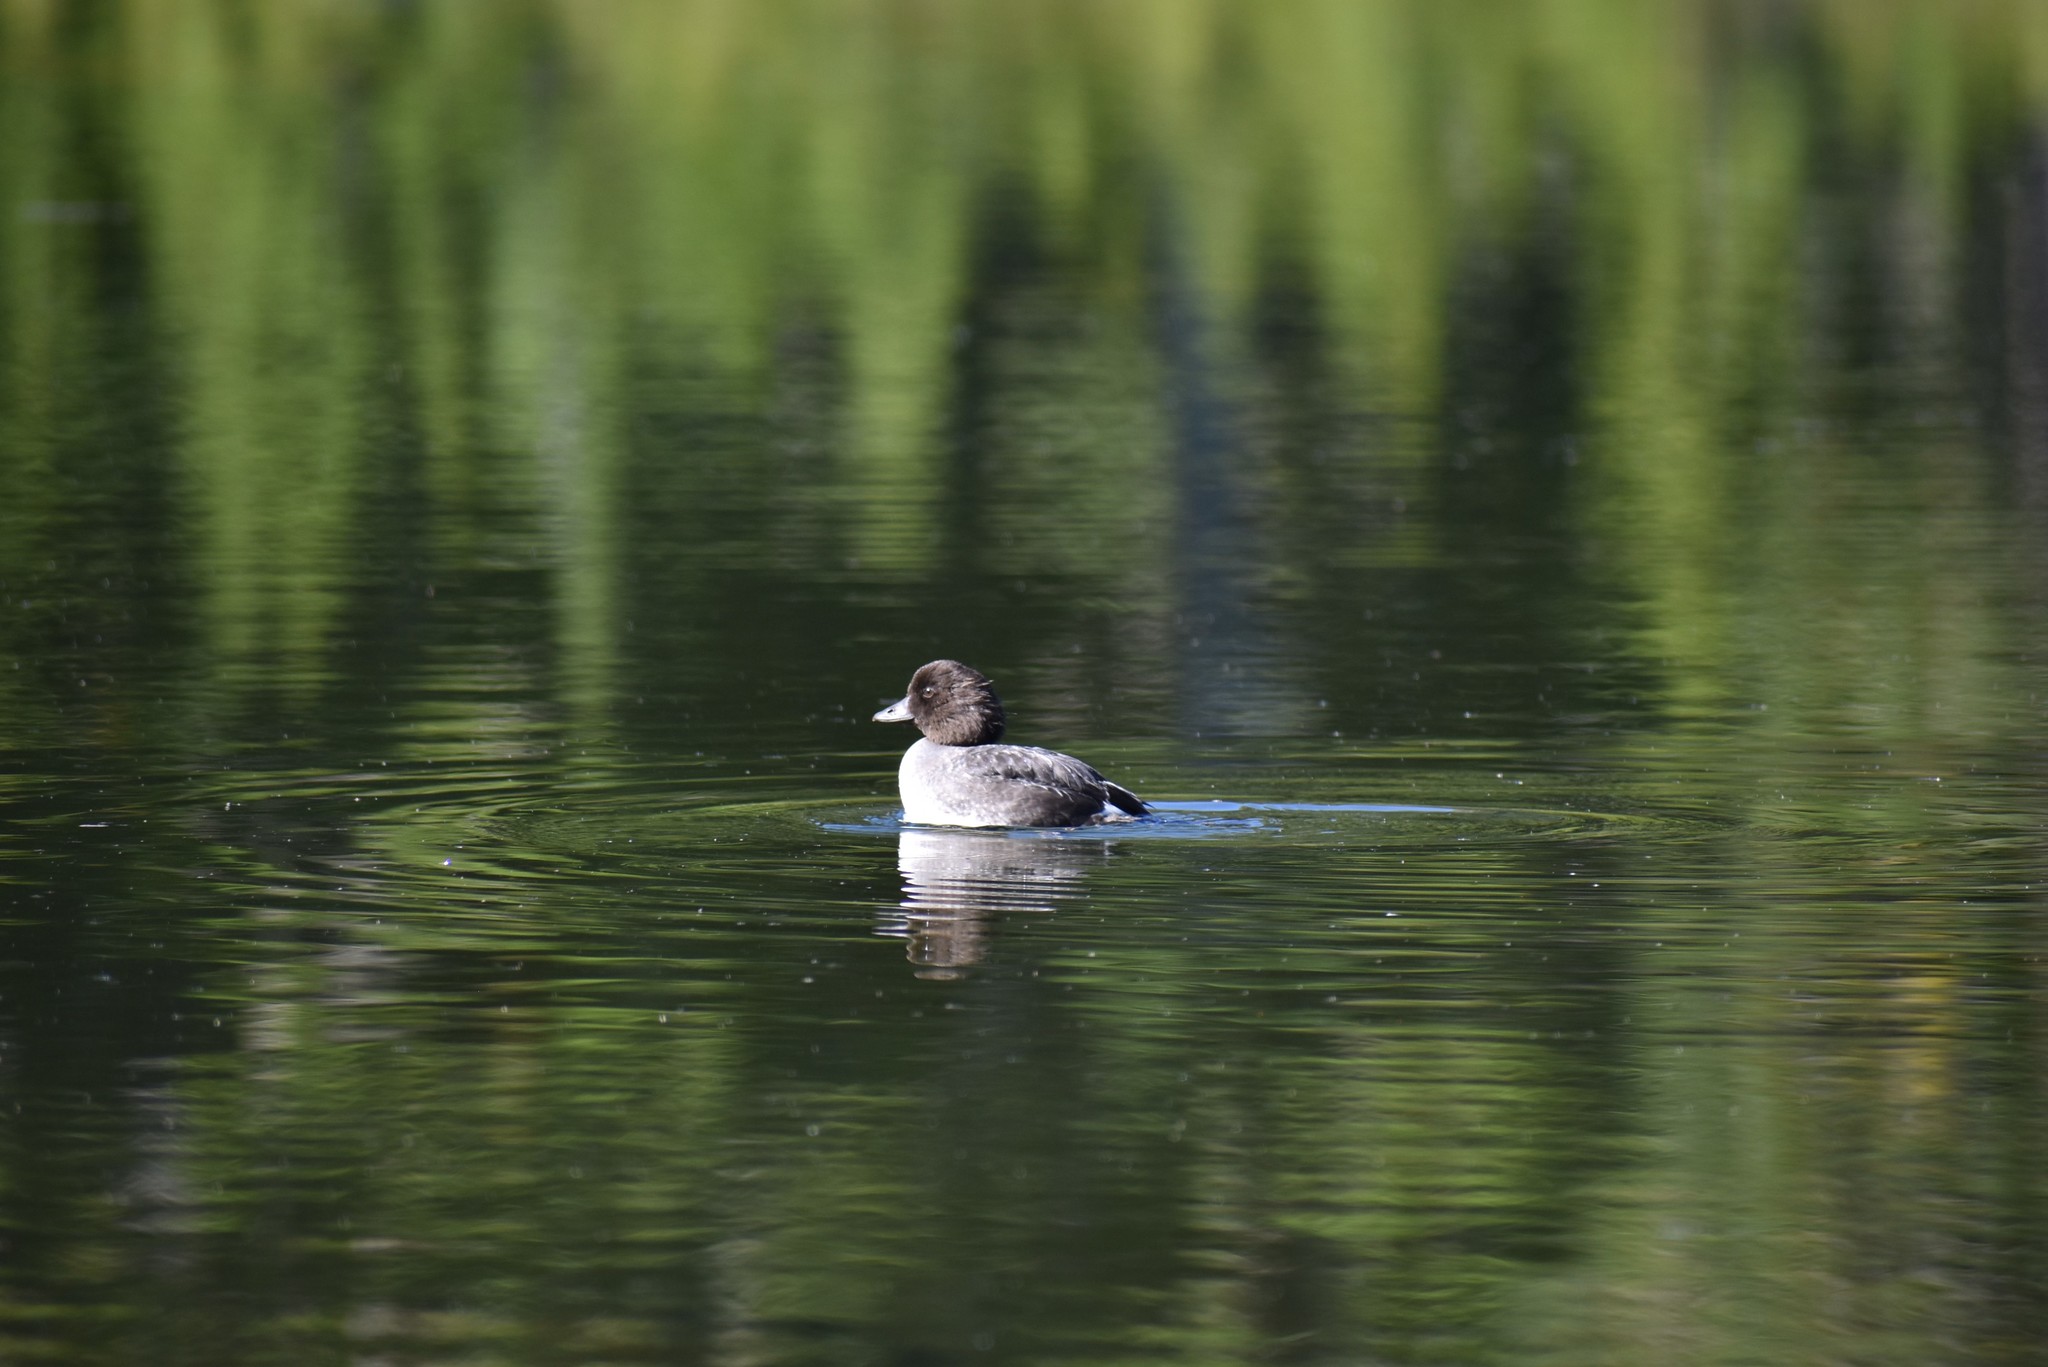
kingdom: Animalia
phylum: Chordata
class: Aves
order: Anseriformes
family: Anatidae
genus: Bucephala
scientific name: Bucephala clangula
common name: Common goldeneye
